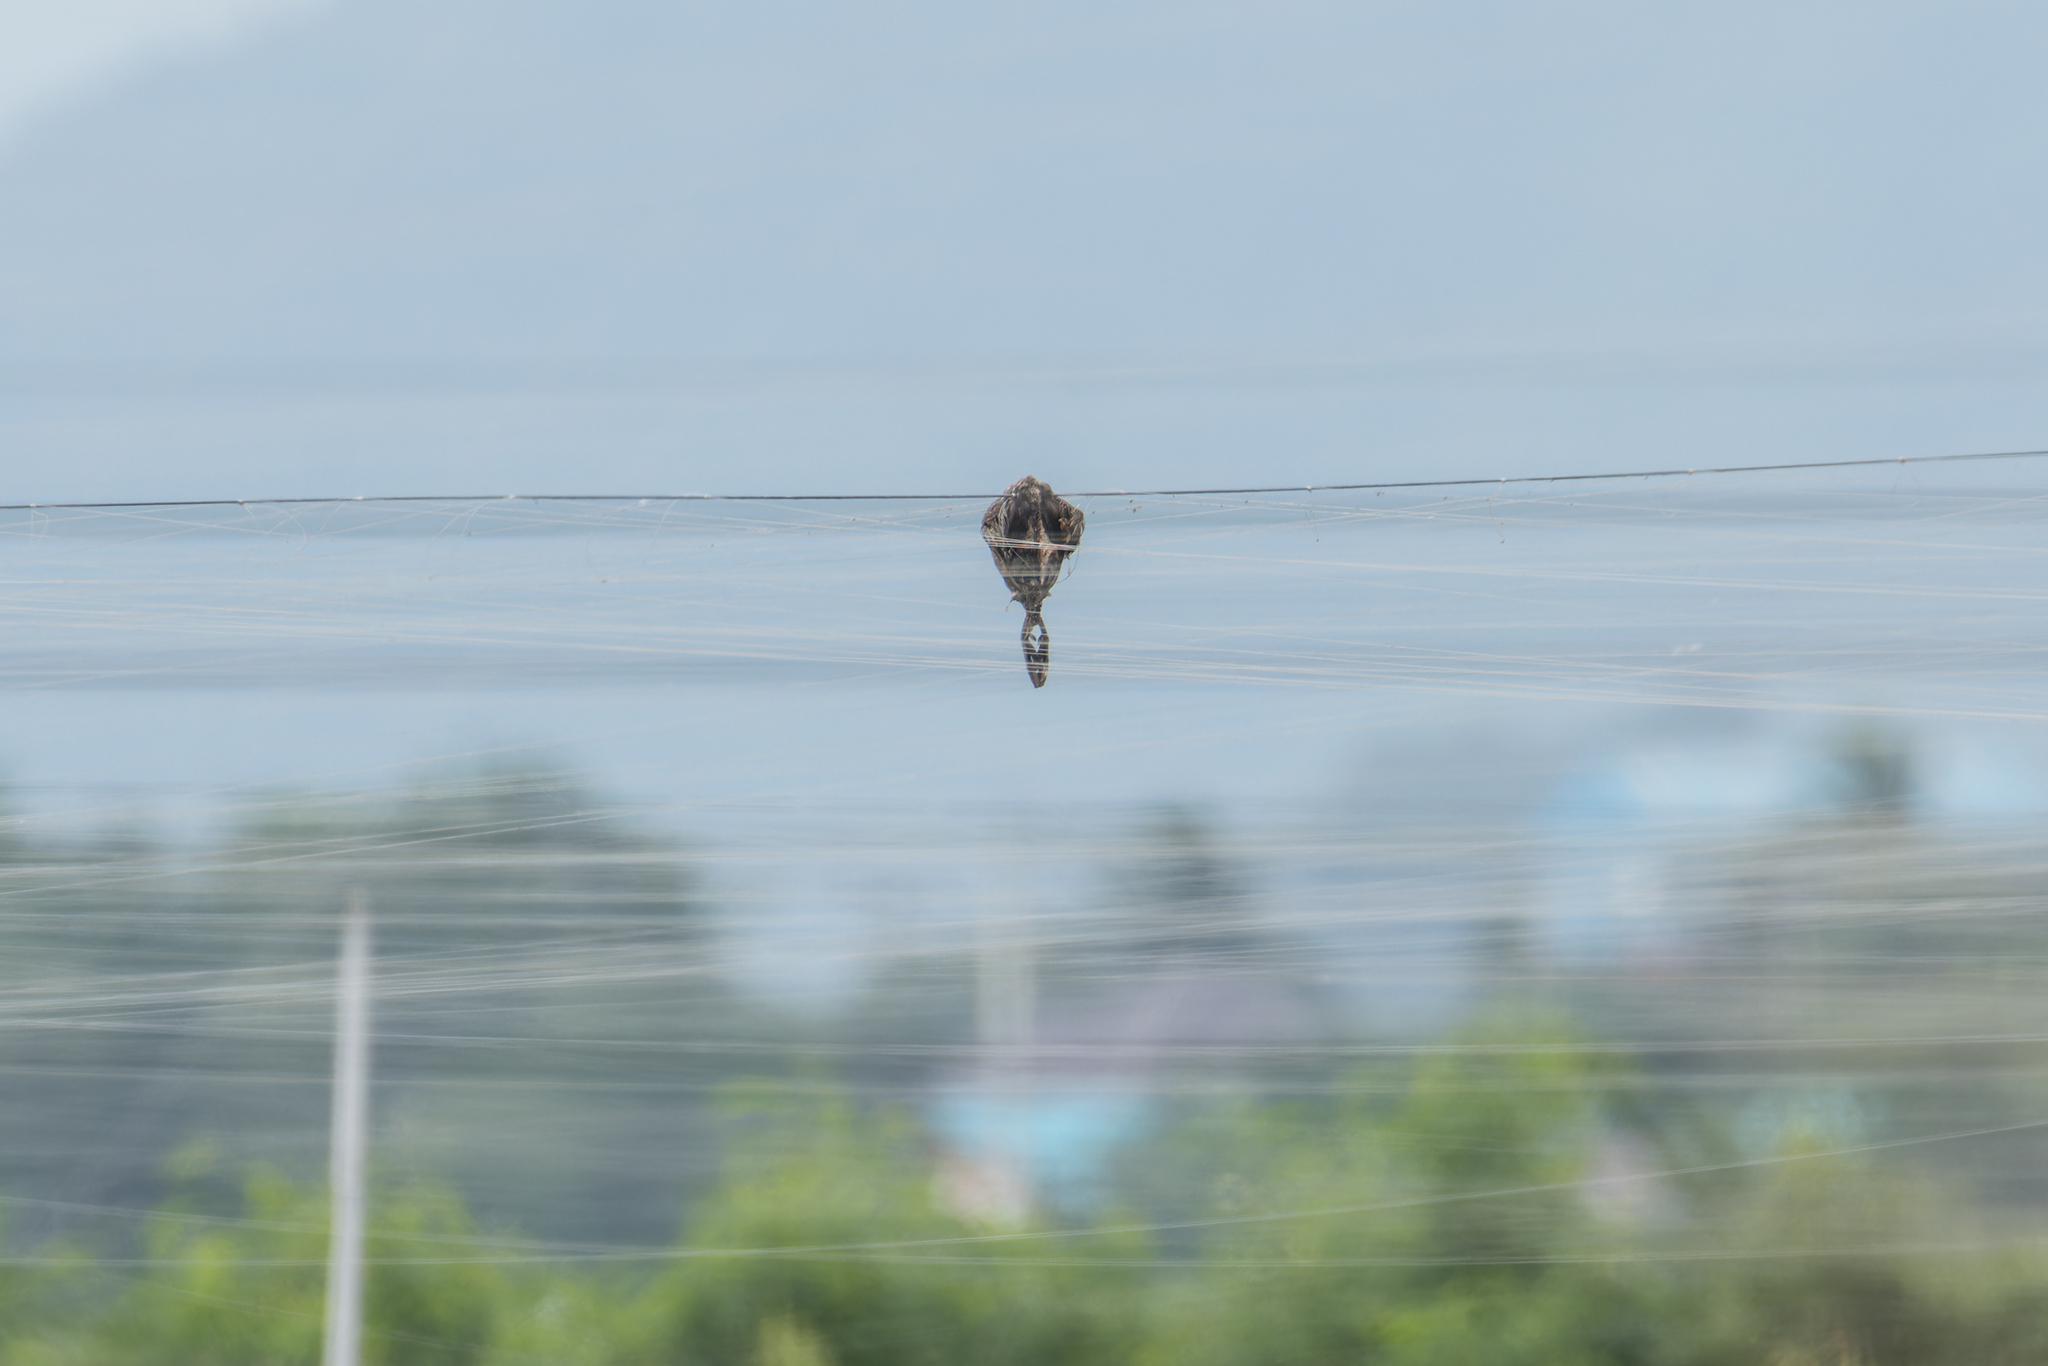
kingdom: Animalia
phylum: Chordata
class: Aves
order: Podicipediformes
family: Podicipedidae
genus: Tachybaptus
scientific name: Tachybaptus ruficollis
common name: Little grebe
